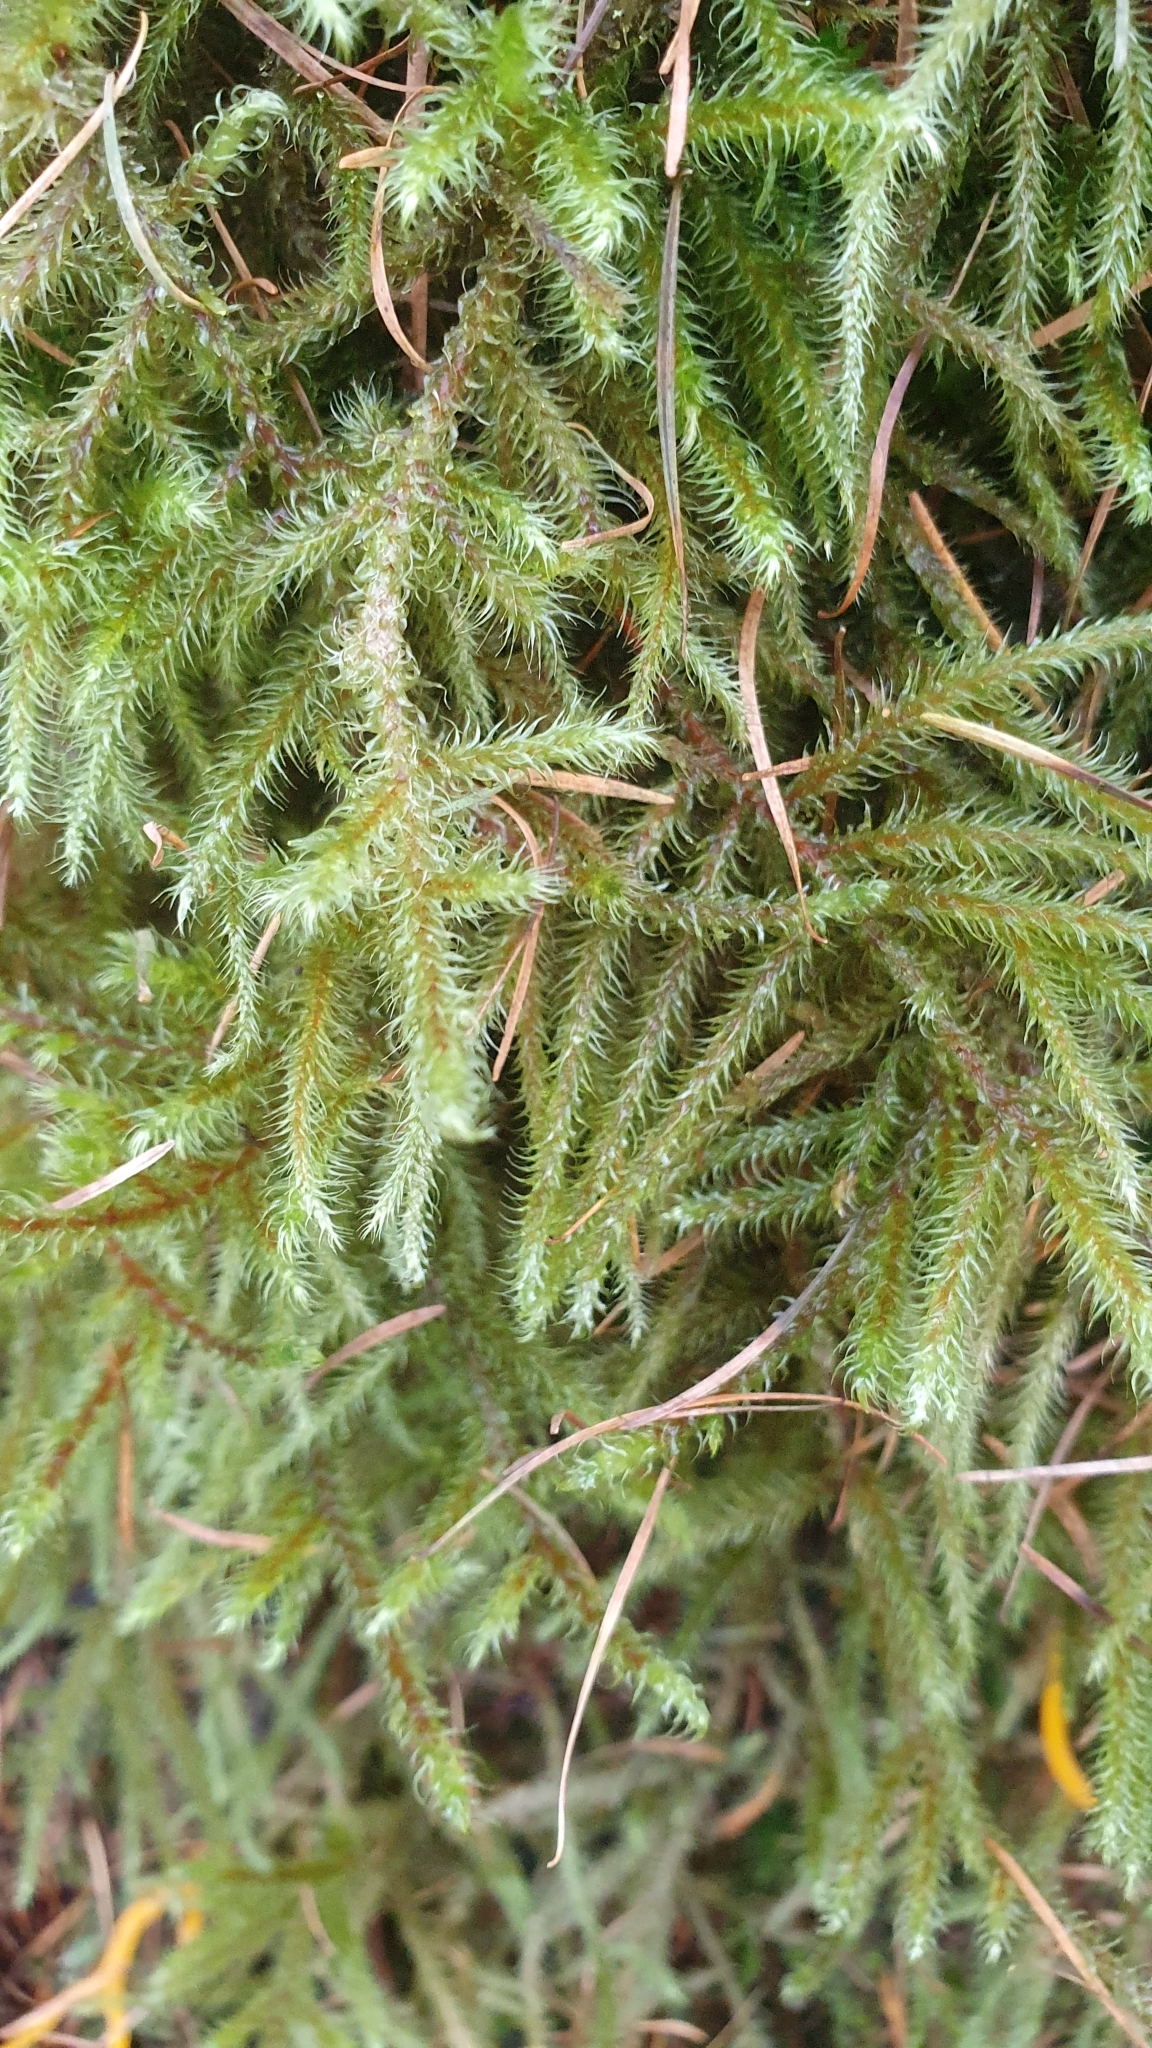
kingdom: Plantae
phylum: Bryophyta
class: Bryopsida
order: Hypnales
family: Hylocomiaceae
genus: Rhytidiadelphus
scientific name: Rhytidiadelphus loreus
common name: Lanky moss
